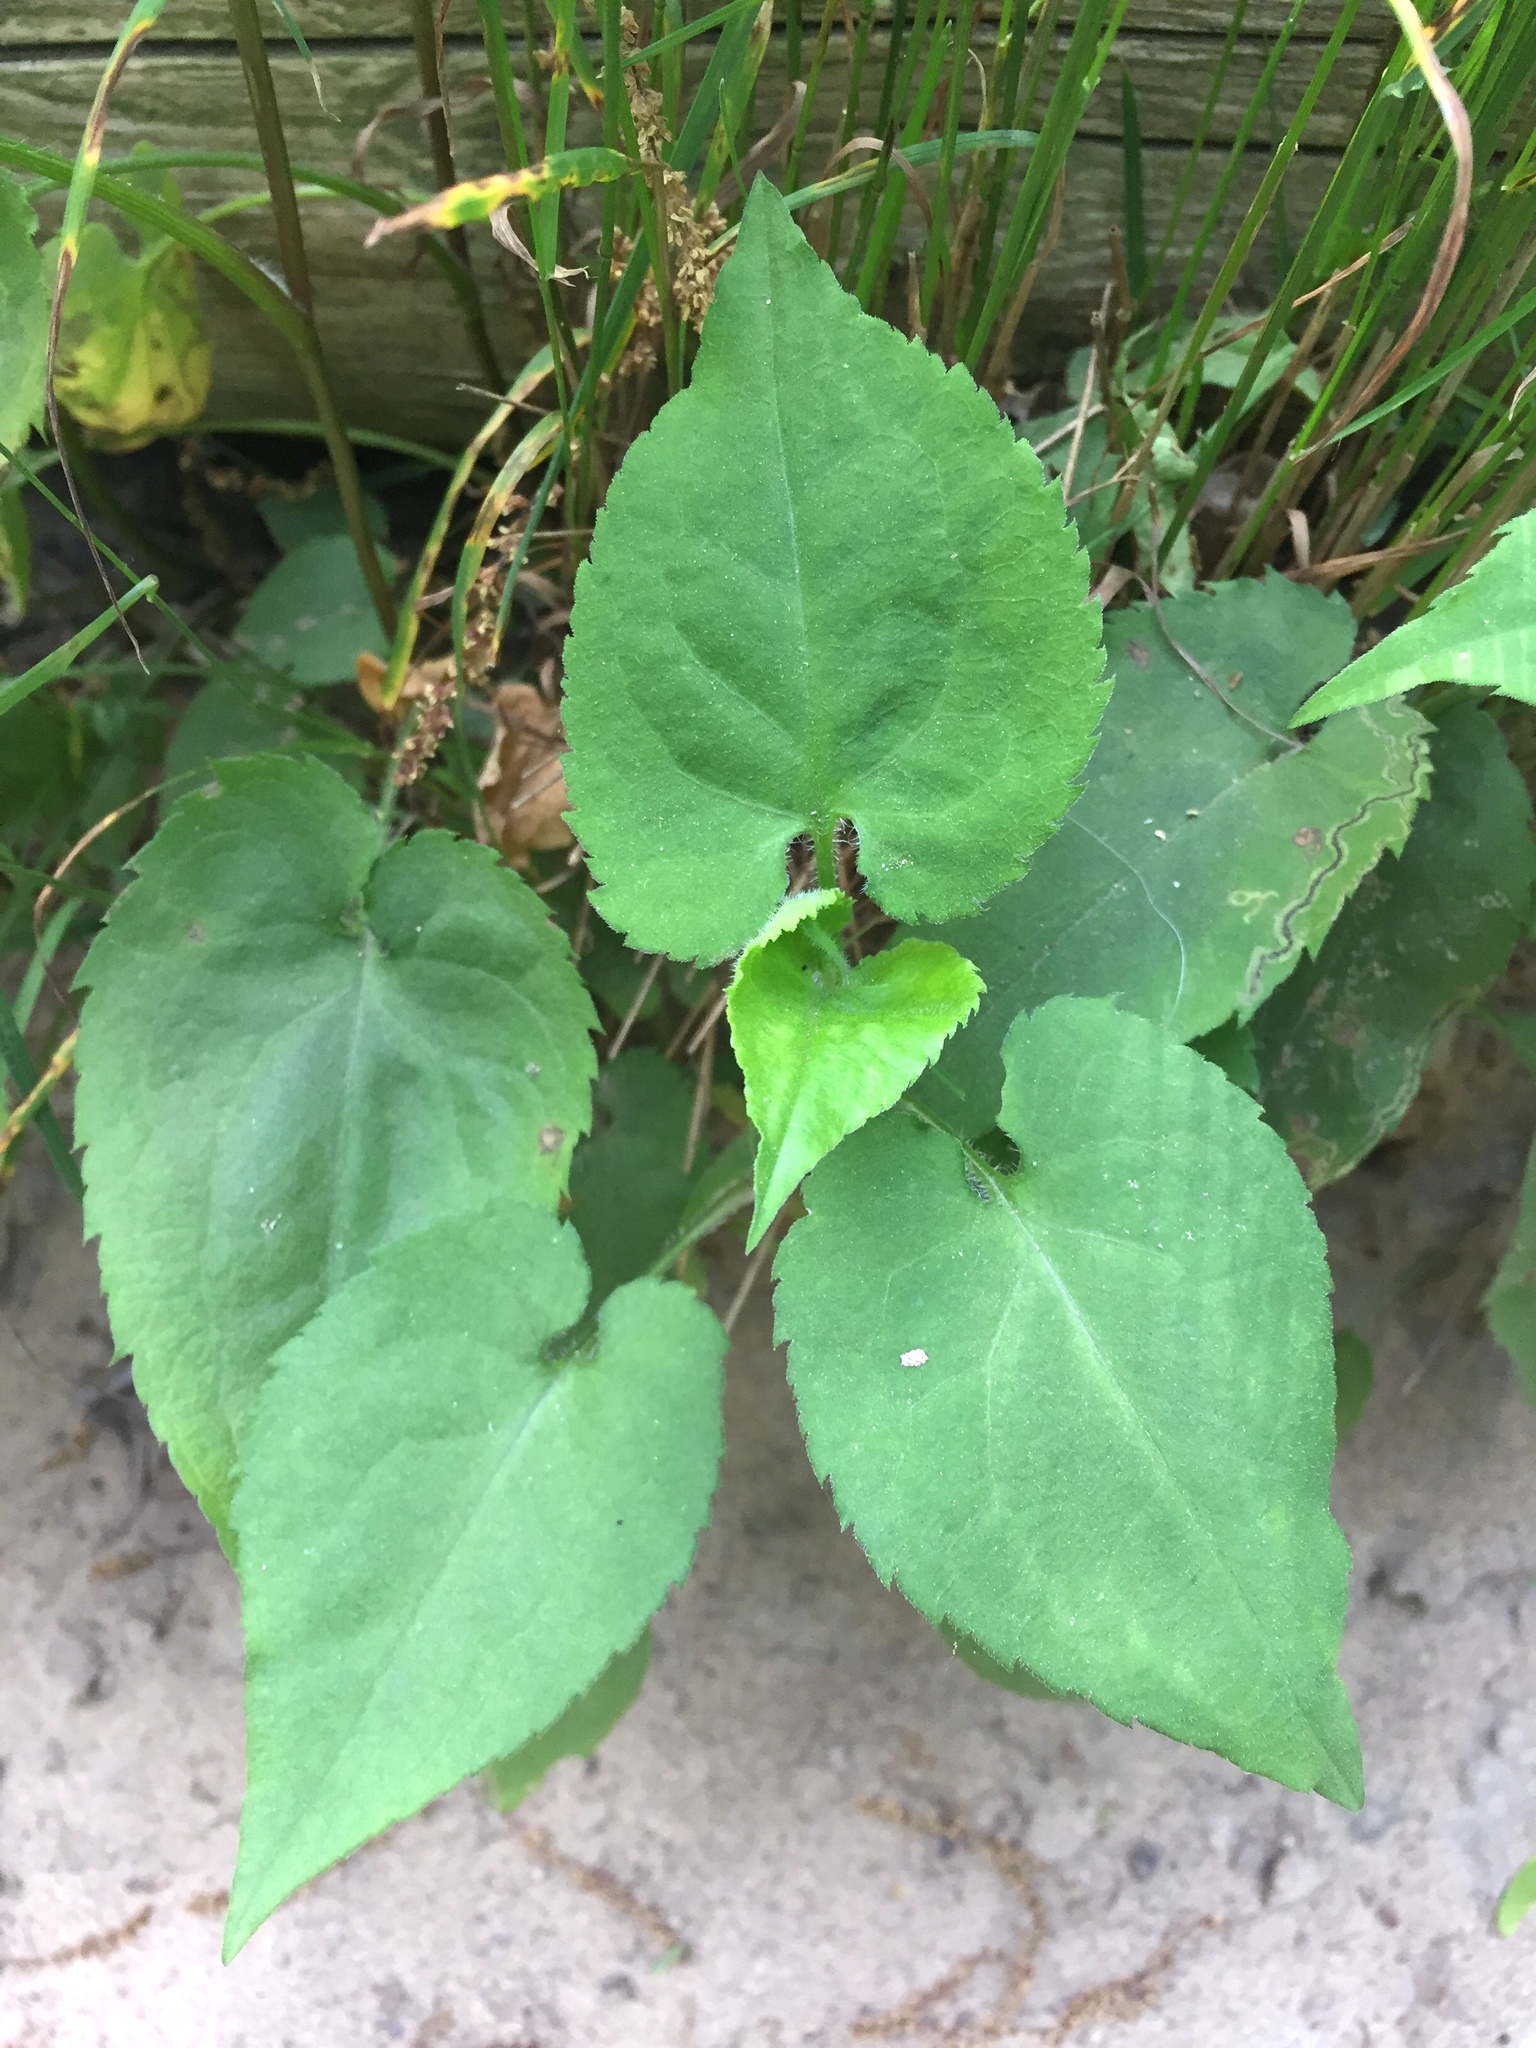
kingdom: Plantae
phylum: Tracheophyta
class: Magnoliopsida
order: Asterales
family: Asteraceae
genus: Symphyotrichum
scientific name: Symphyotrichum cordifolium
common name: Beeweed
